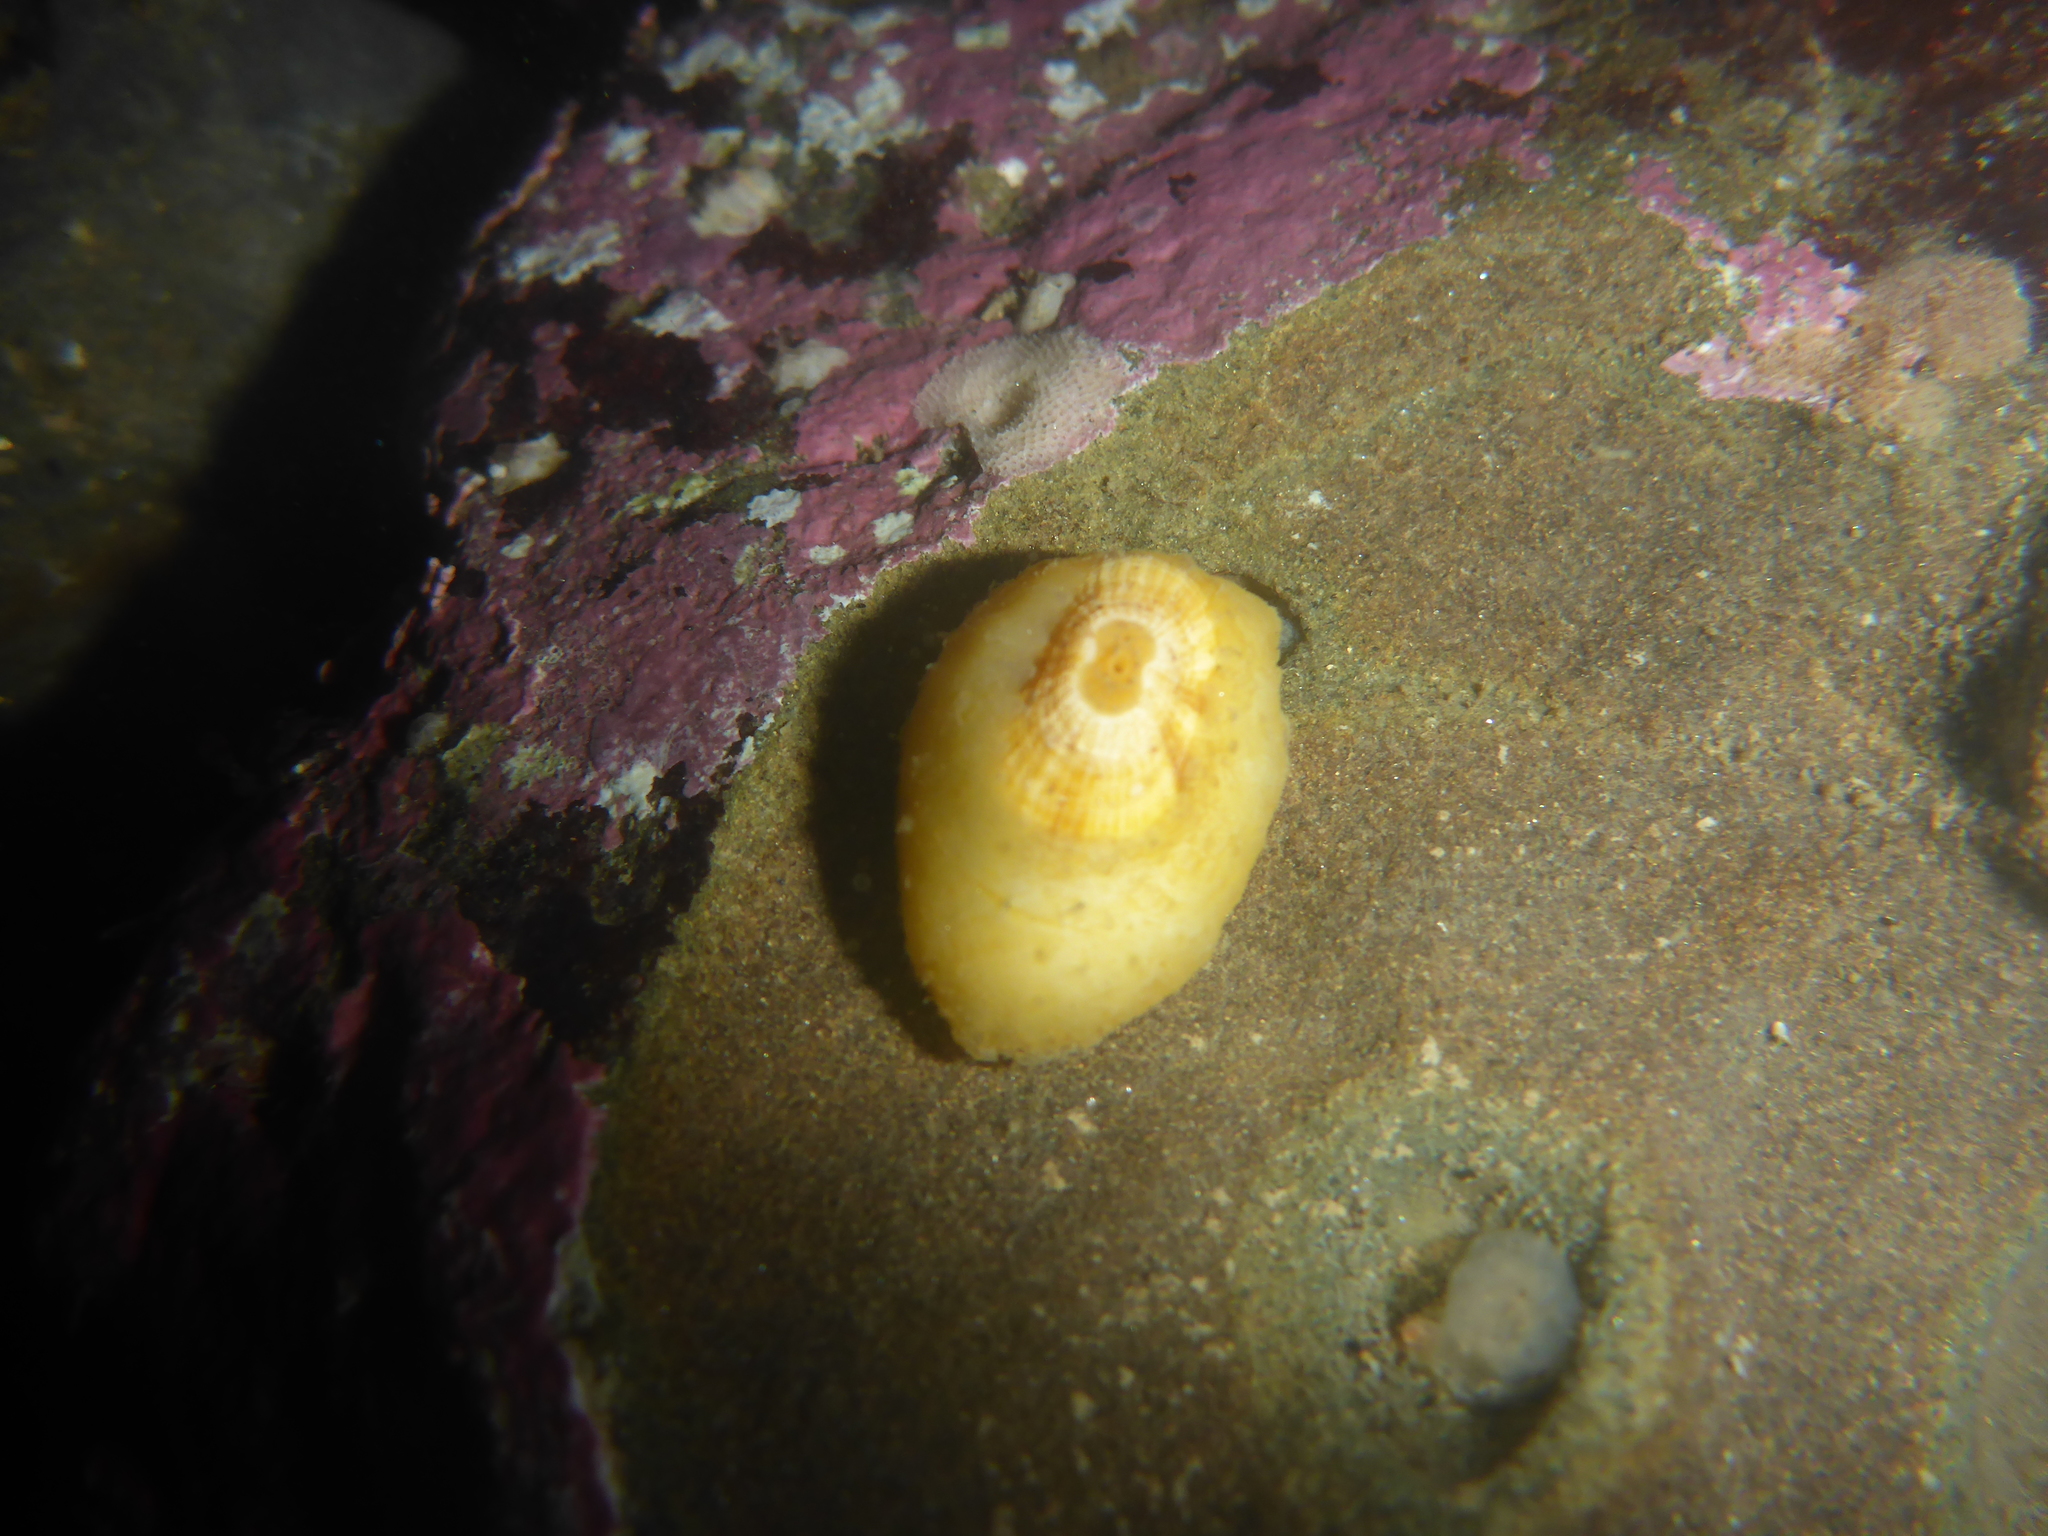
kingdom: Animalia
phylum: Mollusca
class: Gastropoda
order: Lepetellida
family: Fissurellidae
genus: Fissurellidea
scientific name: Fissurellidea bimaculata
